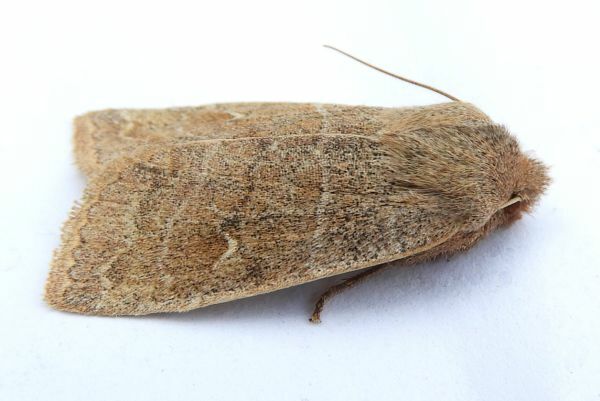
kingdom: Animalia
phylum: Arthropoda
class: Insecta
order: Lepidoptera
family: Noctuidae
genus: Eupsilia
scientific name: Eupsilia morrisoni
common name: Morrison's sallow
